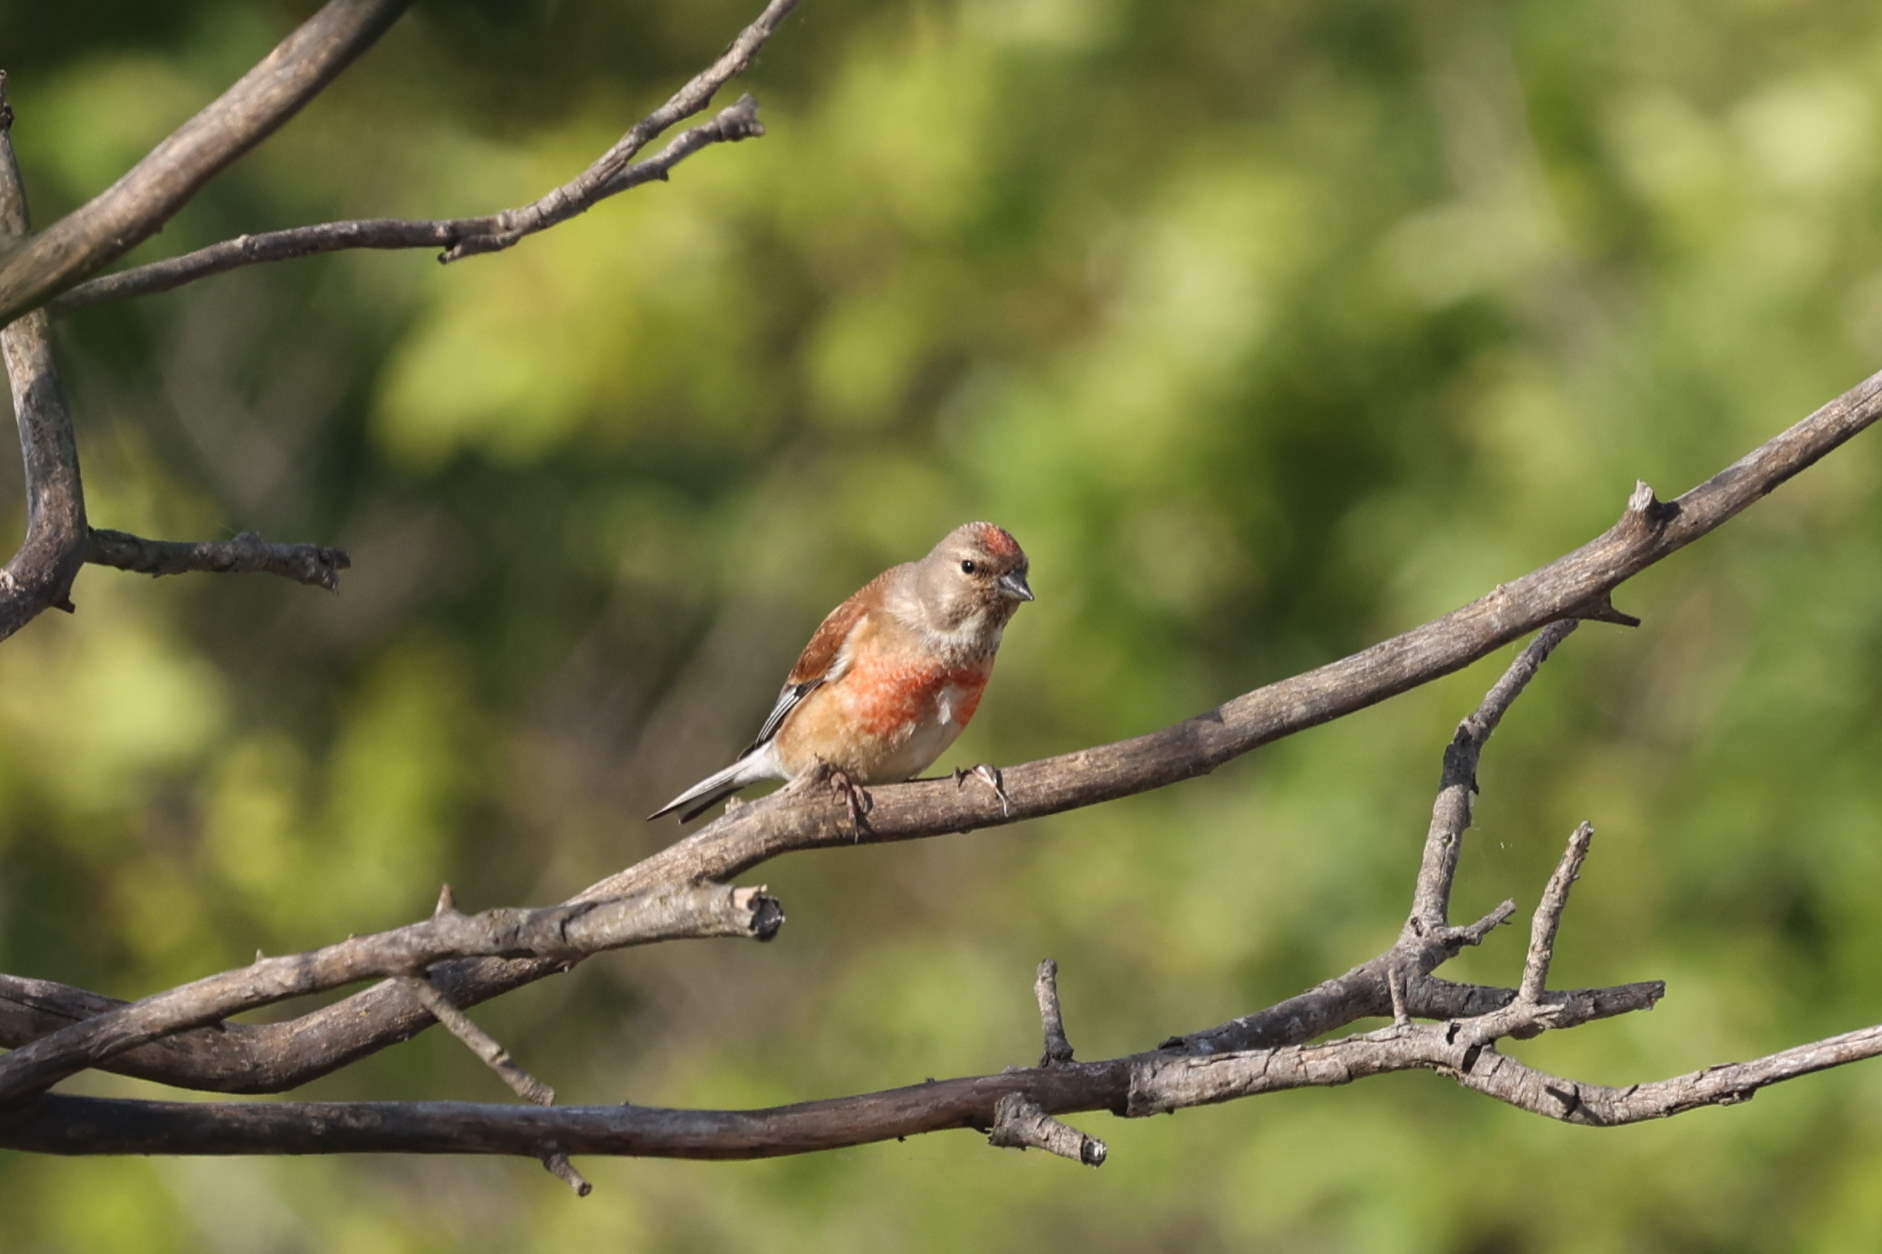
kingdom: Animalia
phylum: Chordata
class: Aves
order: Passeriformes
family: Fringillidae
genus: Linaria
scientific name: Linaria cannabina
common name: Common linnet
